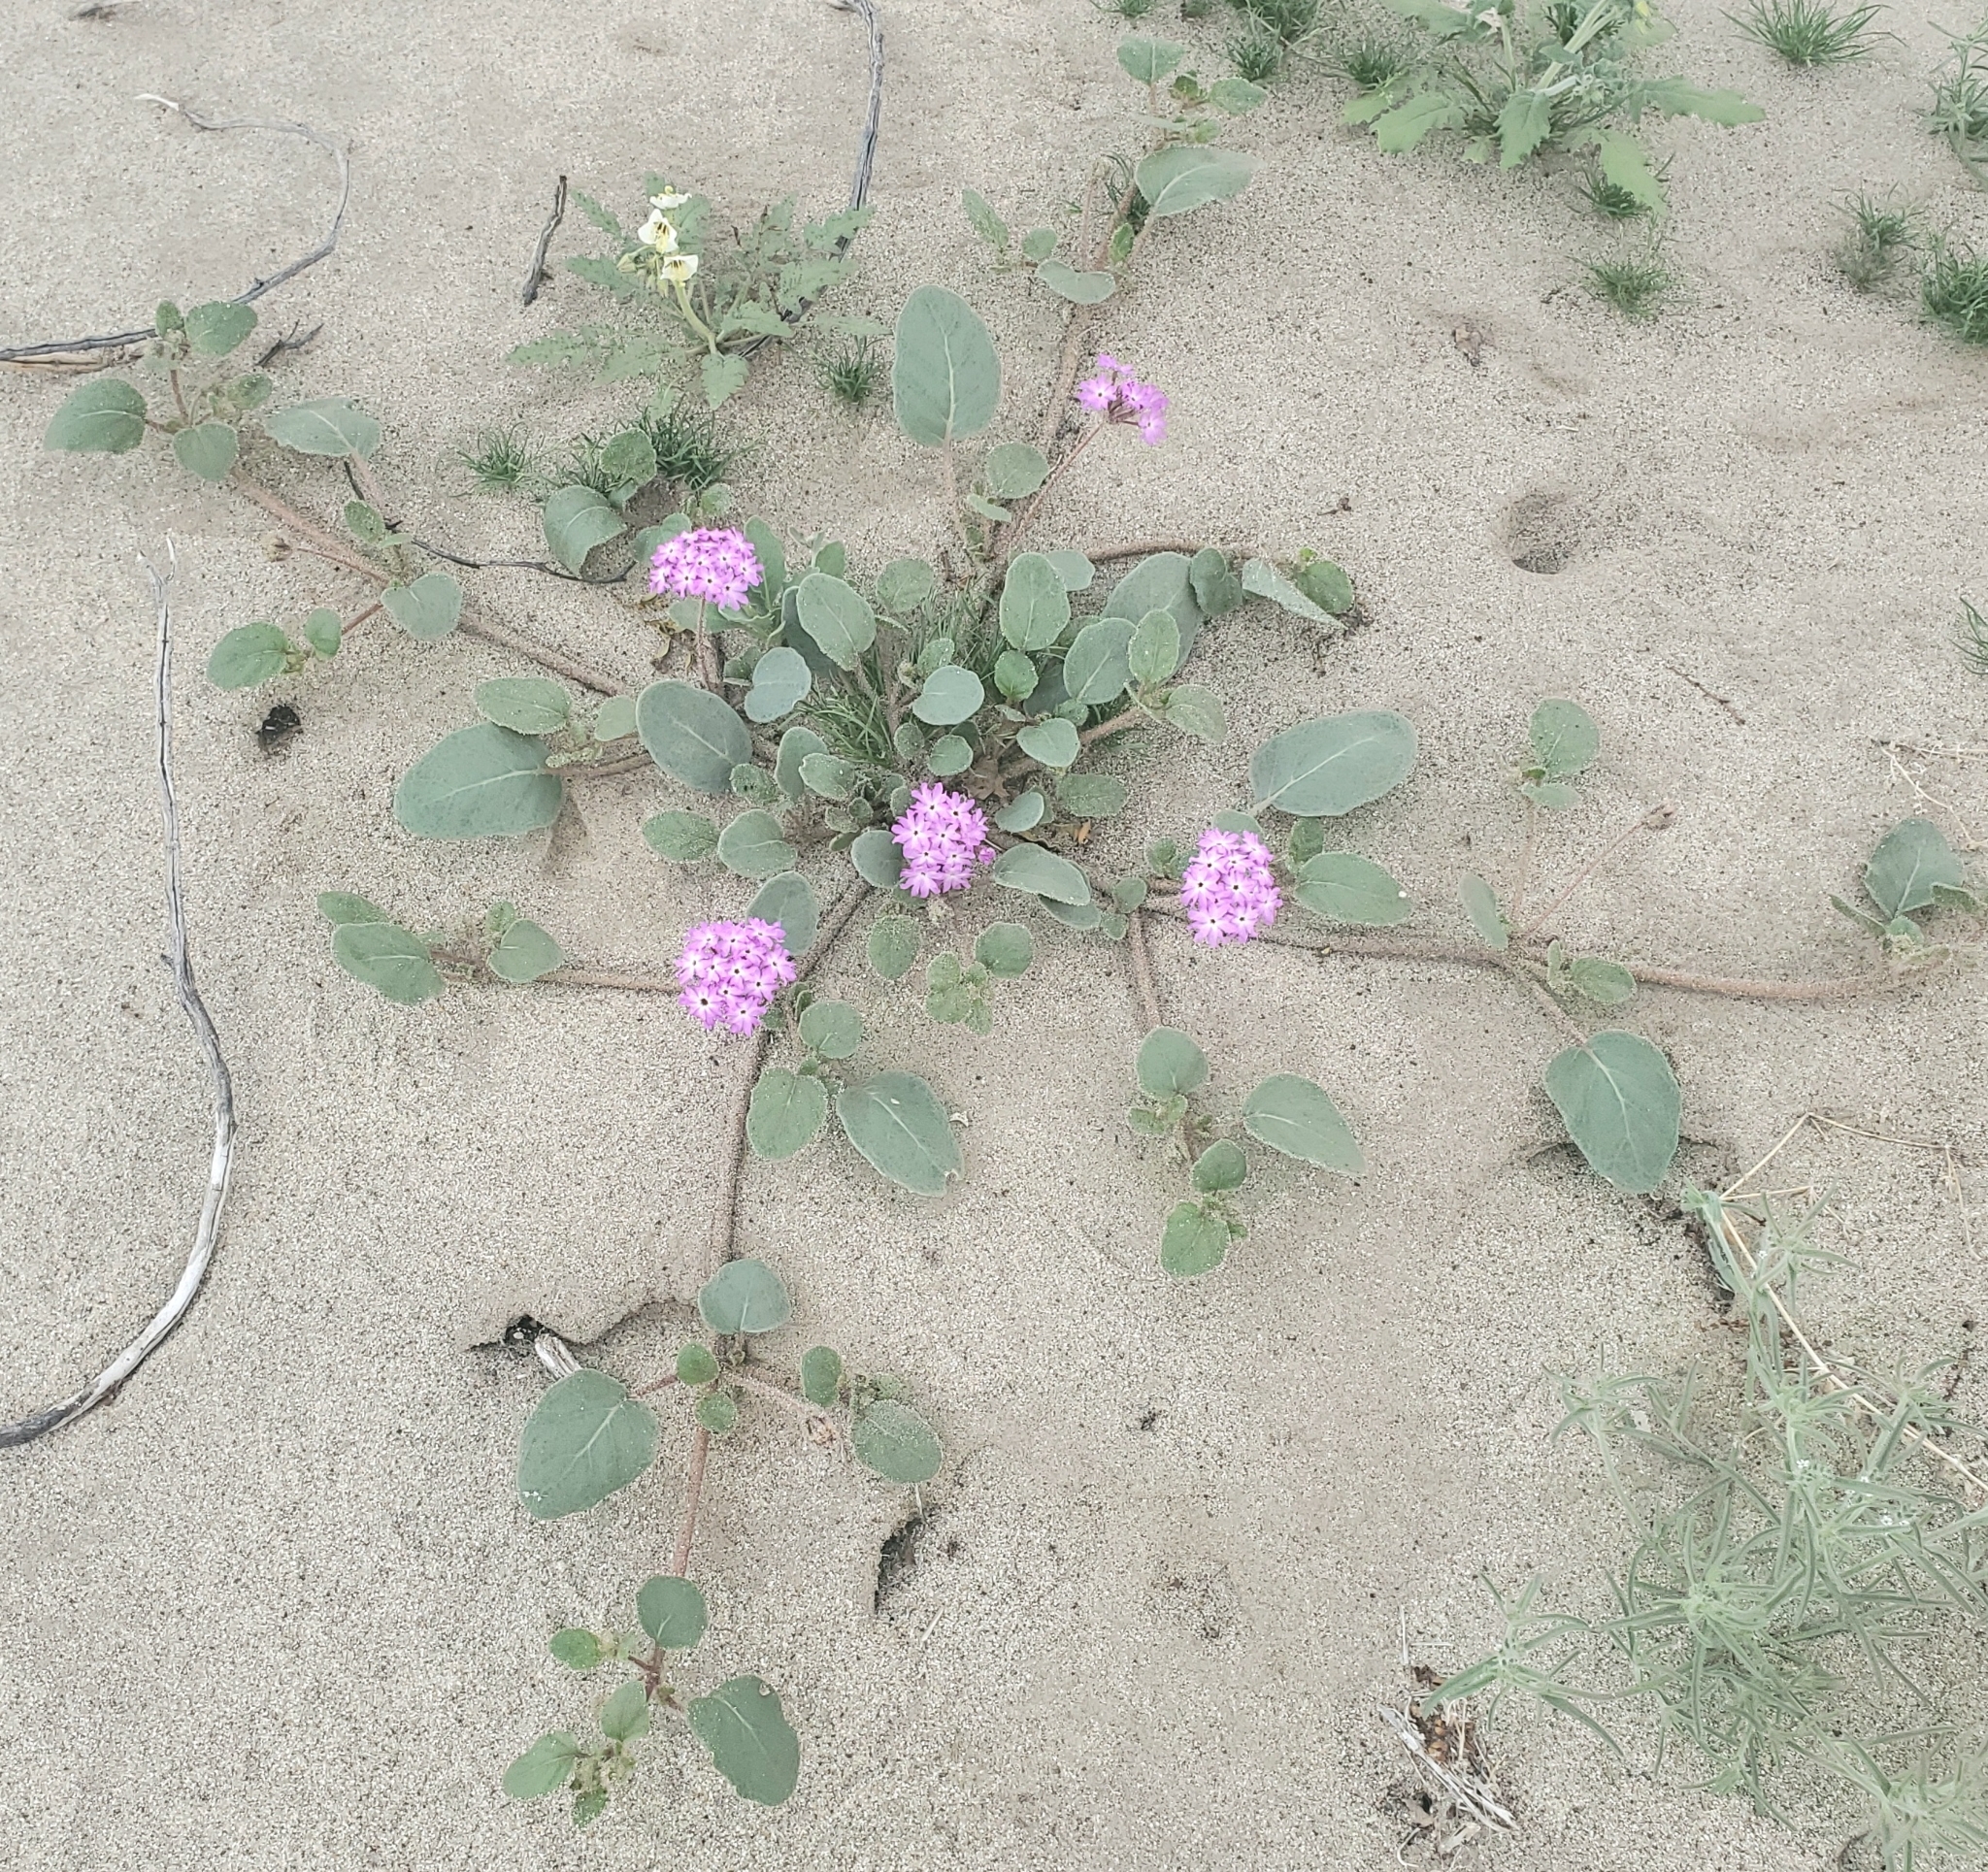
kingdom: Plantae
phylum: Tracheophyta
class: Magnoliopsida
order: Caryophyllales
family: Nyctaginaceae
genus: Abronia
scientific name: Abronia villosa
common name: Desert sand-verbena
